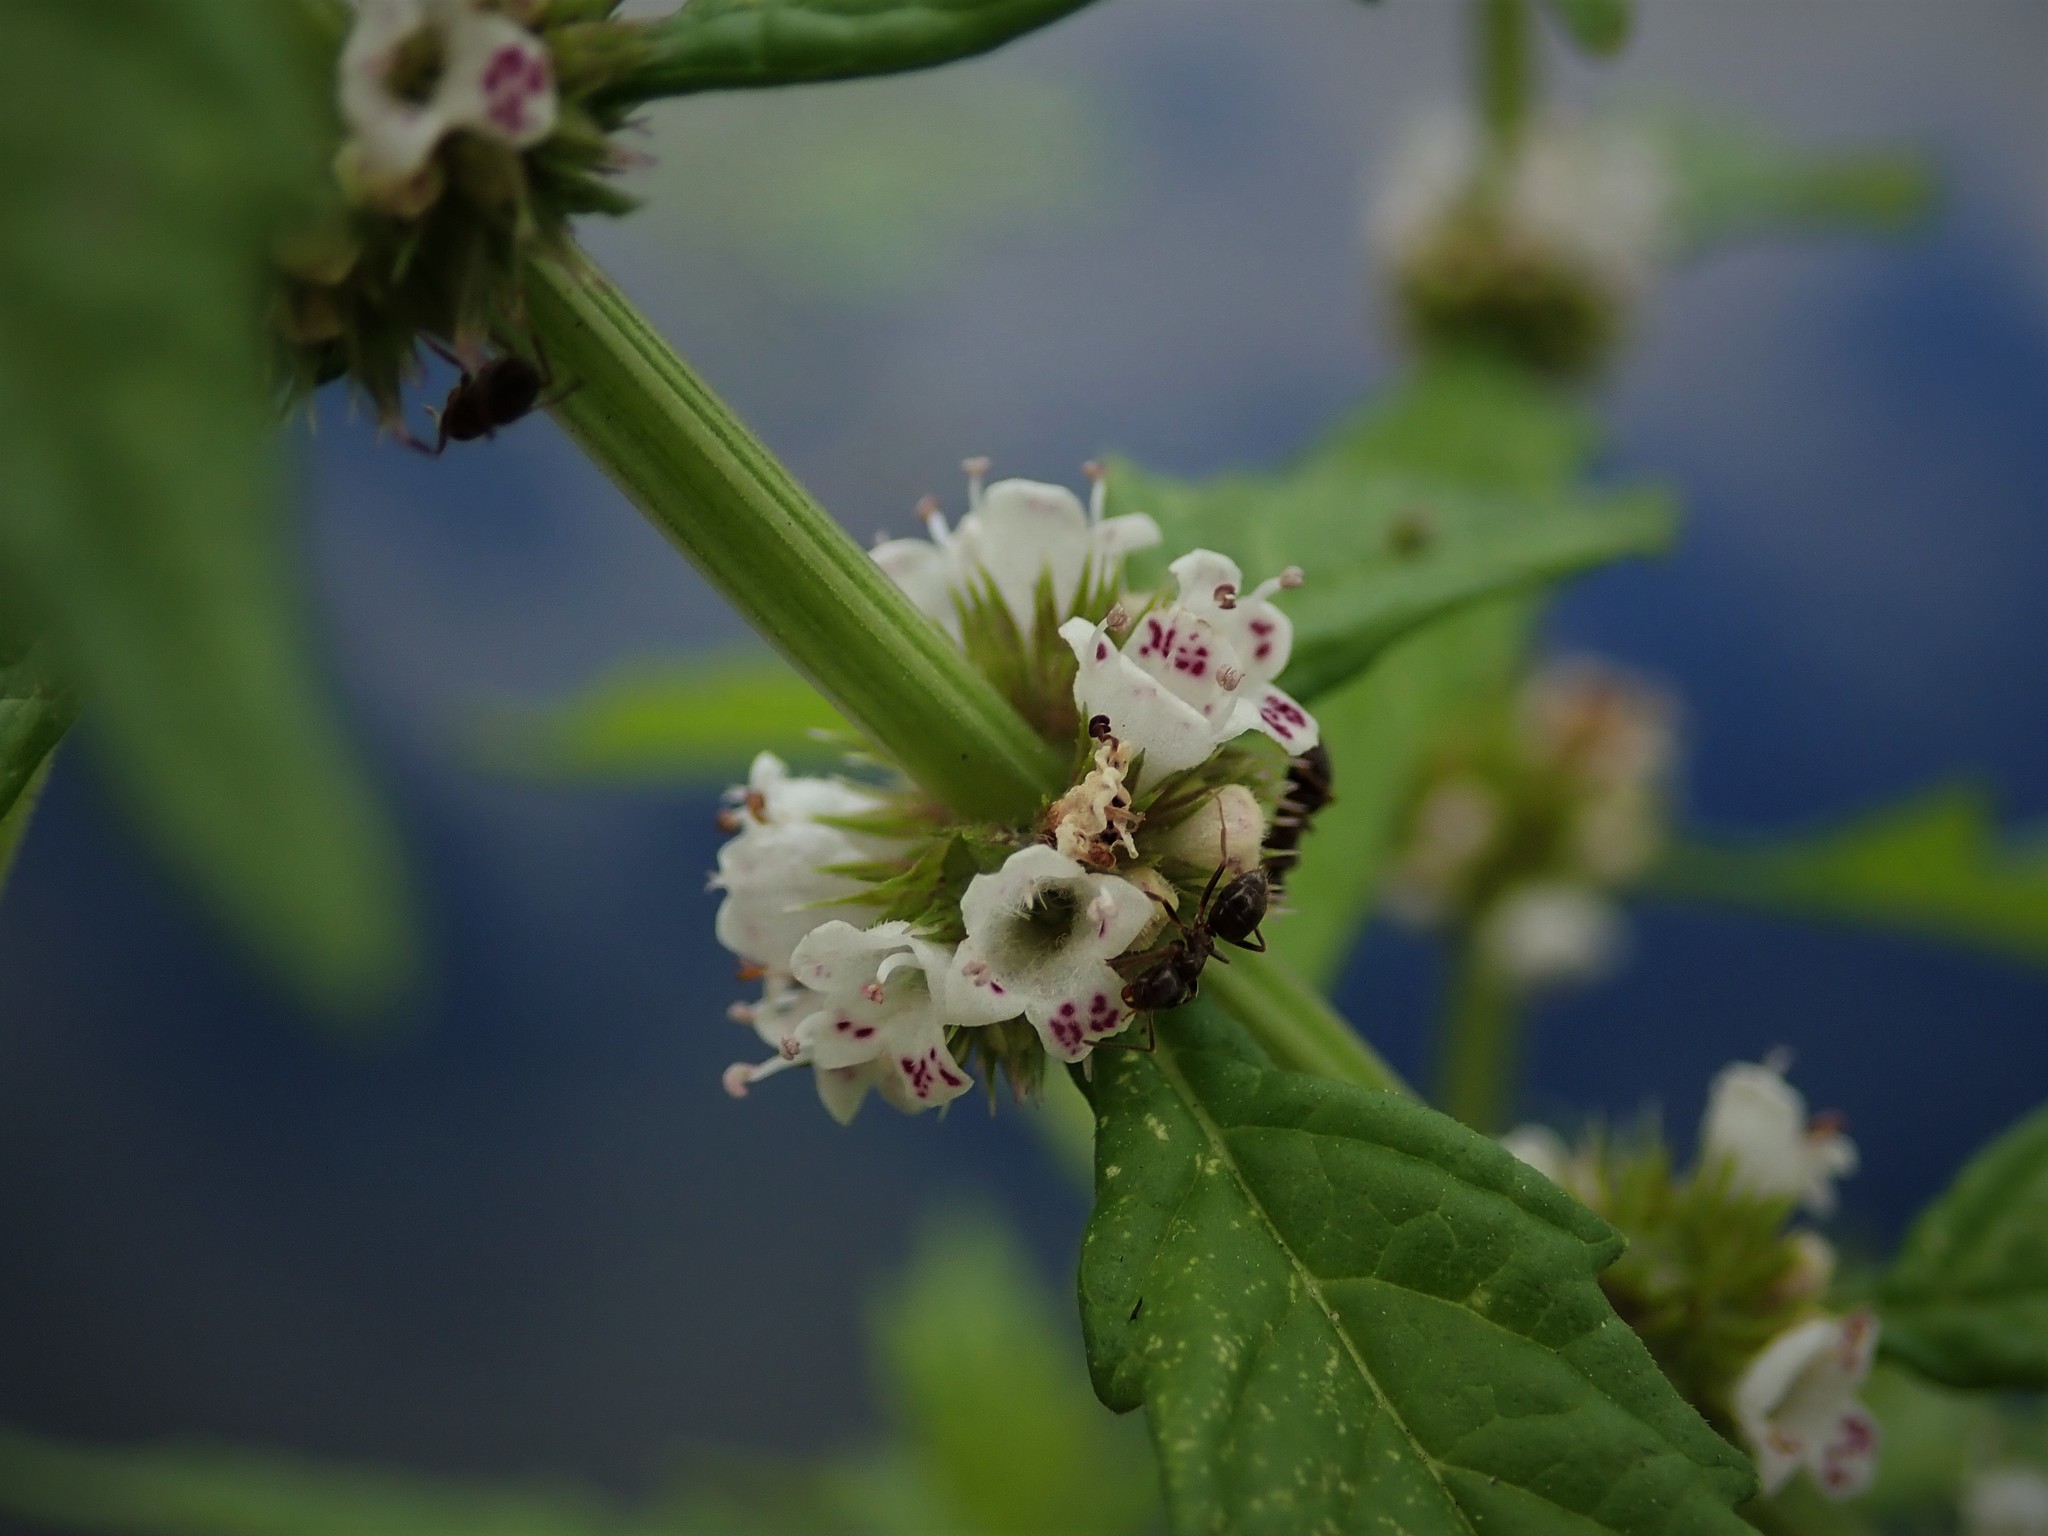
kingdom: Plantae
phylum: Tracheophyta
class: Magnoliopsida
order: Lamiales
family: Lamiaceae
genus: Lycopus
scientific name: Lycopus europaeus
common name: European bugleweed
